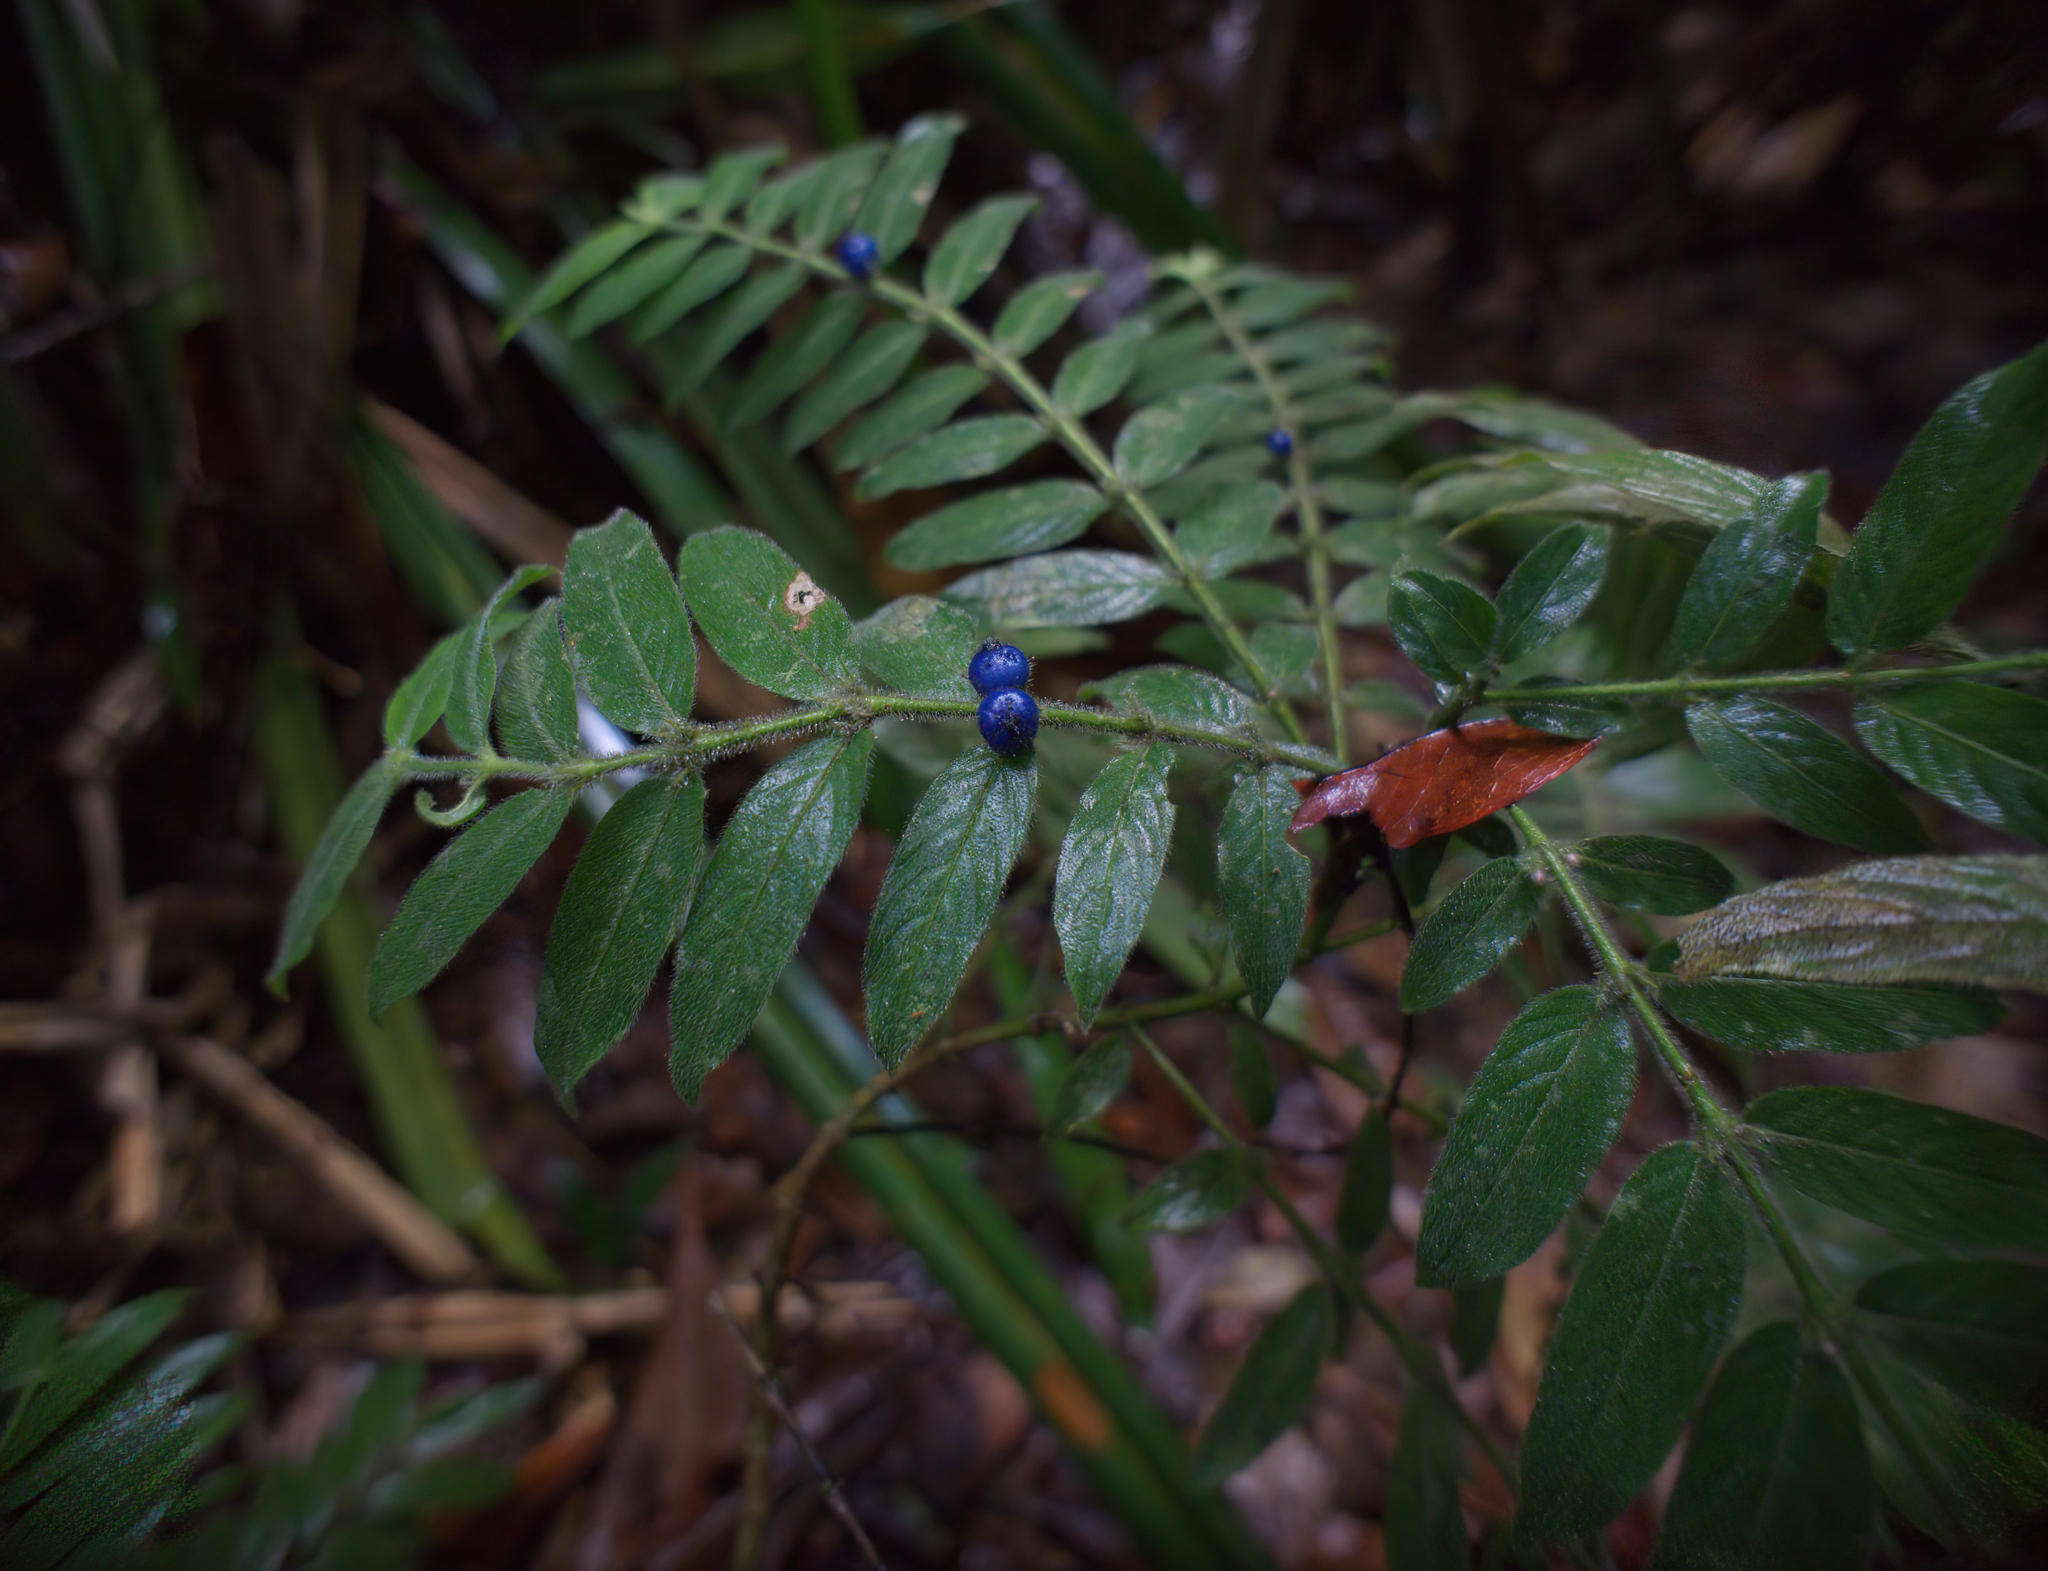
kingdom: Plantae
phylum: Tracheophyta
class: Magnoliopsida
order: Gentianales
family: Rubiaceae
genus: Lasianthus
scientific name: Lasianthus attenuatus
